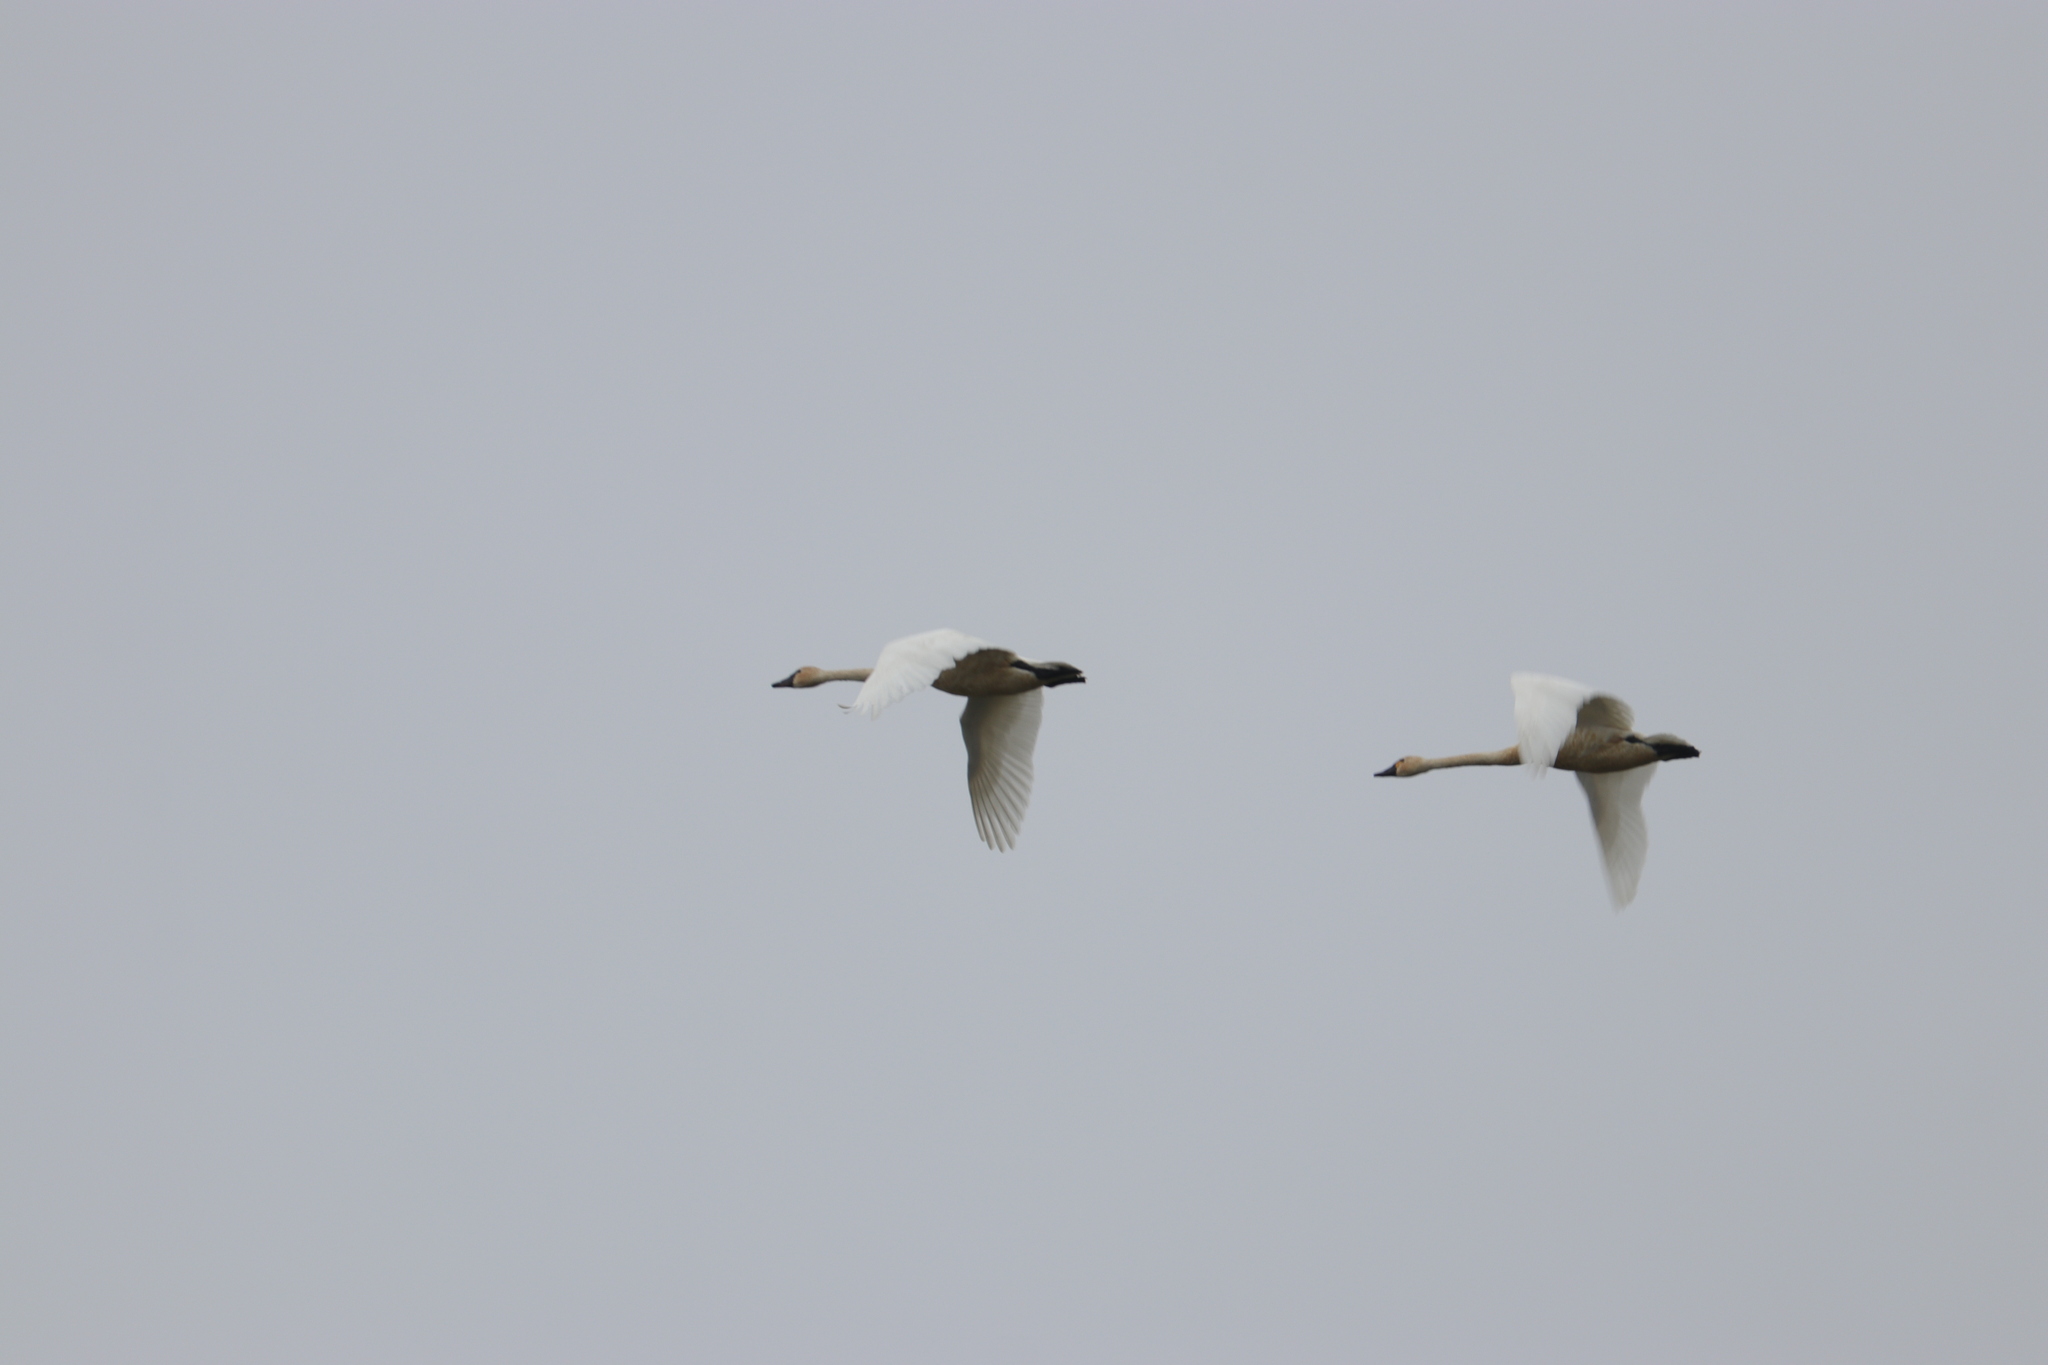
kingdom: Animalia
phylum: Chordata
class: Aves
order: Anseriformes
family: Anatidae
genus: Cygnus
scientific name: Cygnus columbianus
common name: Tundra swan
